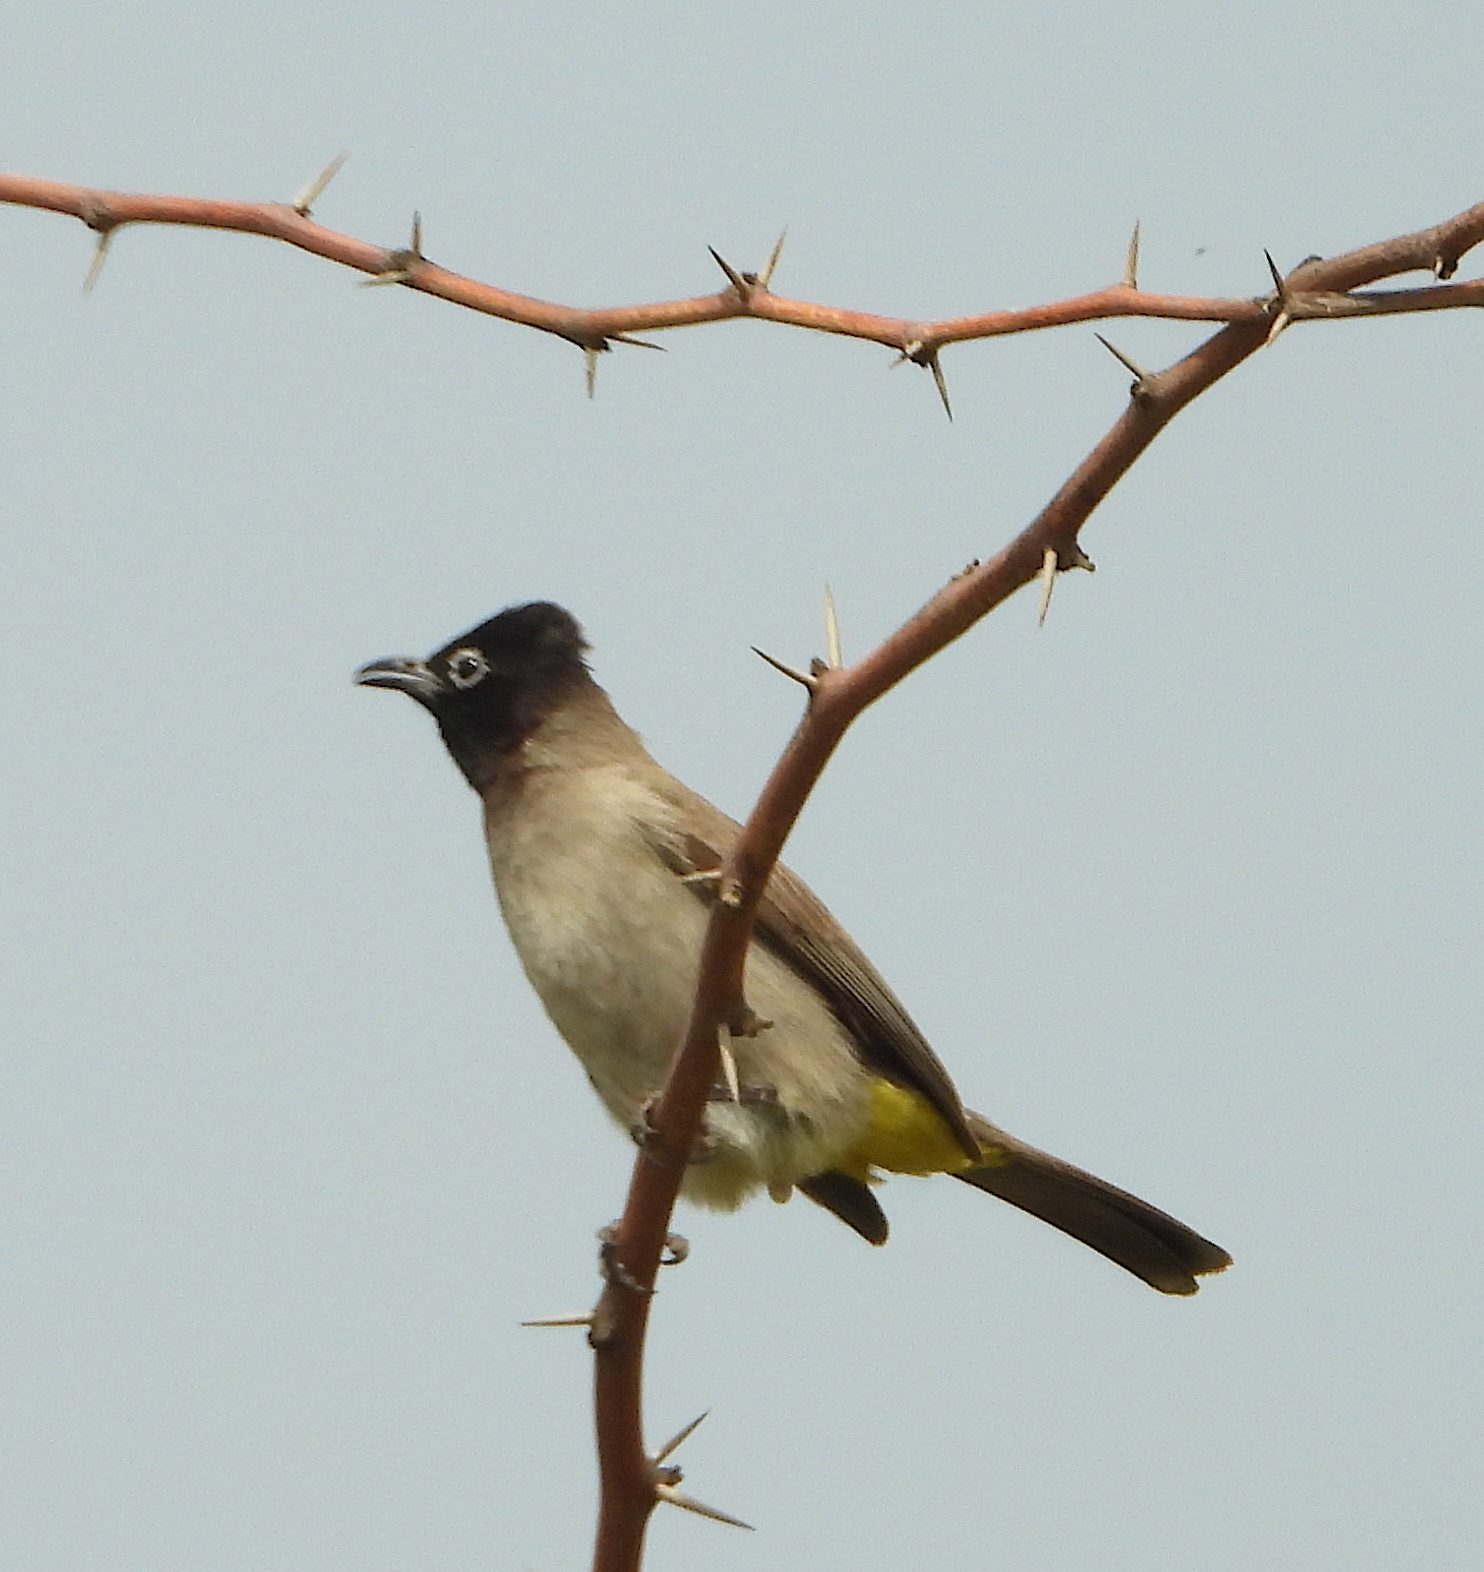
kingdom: Animalia
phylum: Chordata
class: Aves
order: Passeriformes
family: Pycnonotidae
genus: Pycnonotus
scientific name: Pycnonotus xanthopygos
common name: White-spectacled bulbul
